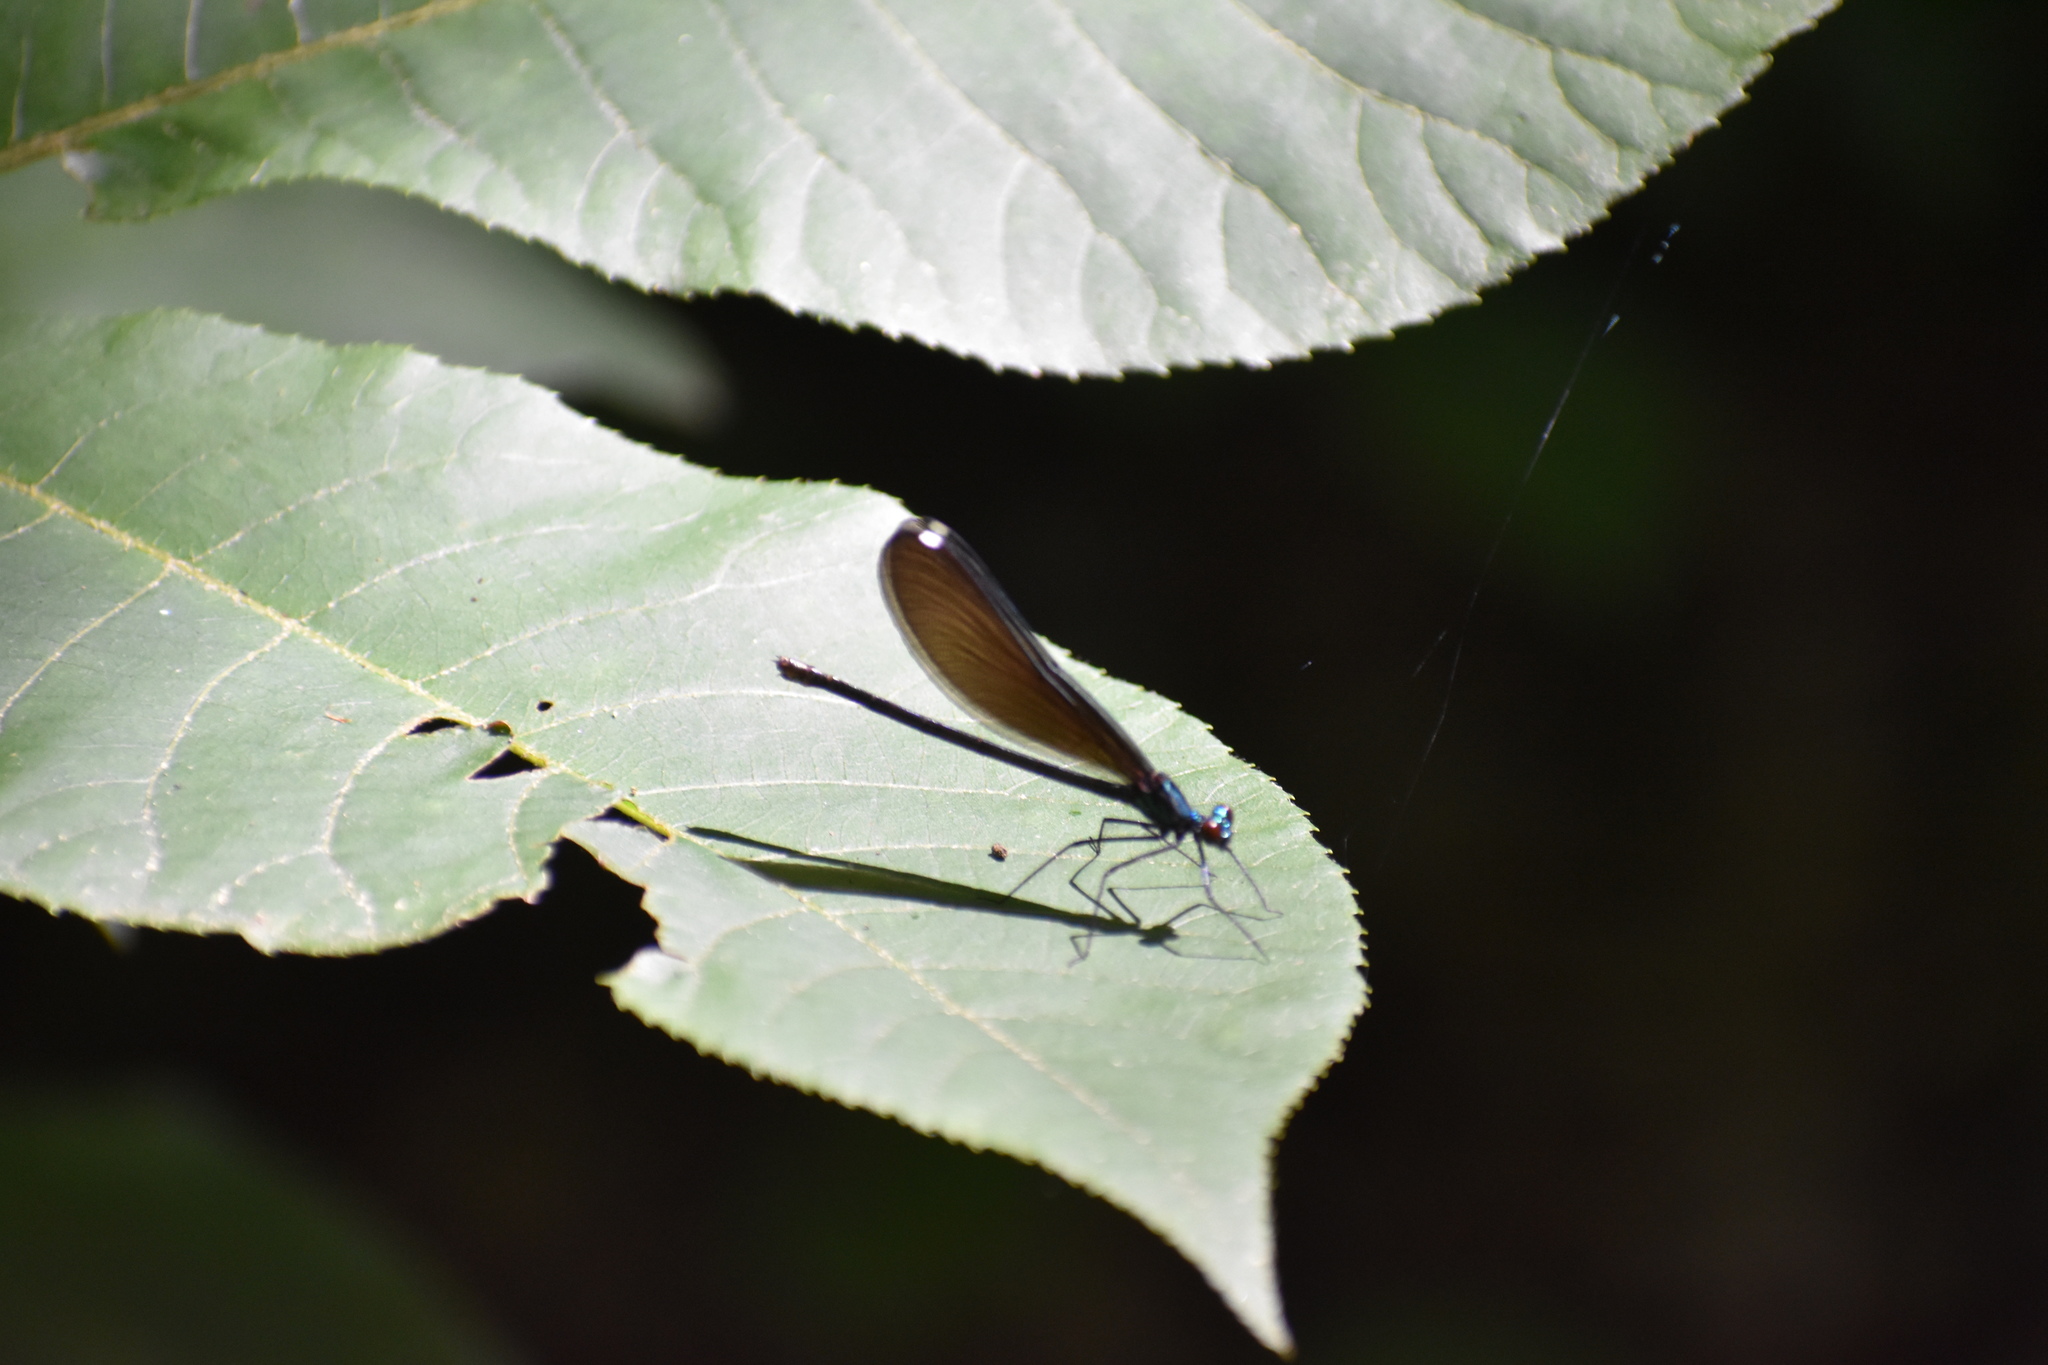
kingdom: Animalia
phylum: Arthropoda
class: Insecta
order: Odonata
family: Calopterygidae
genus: Calopteryx
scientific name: Calopteryx maculata
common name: Ebony jewelwing
